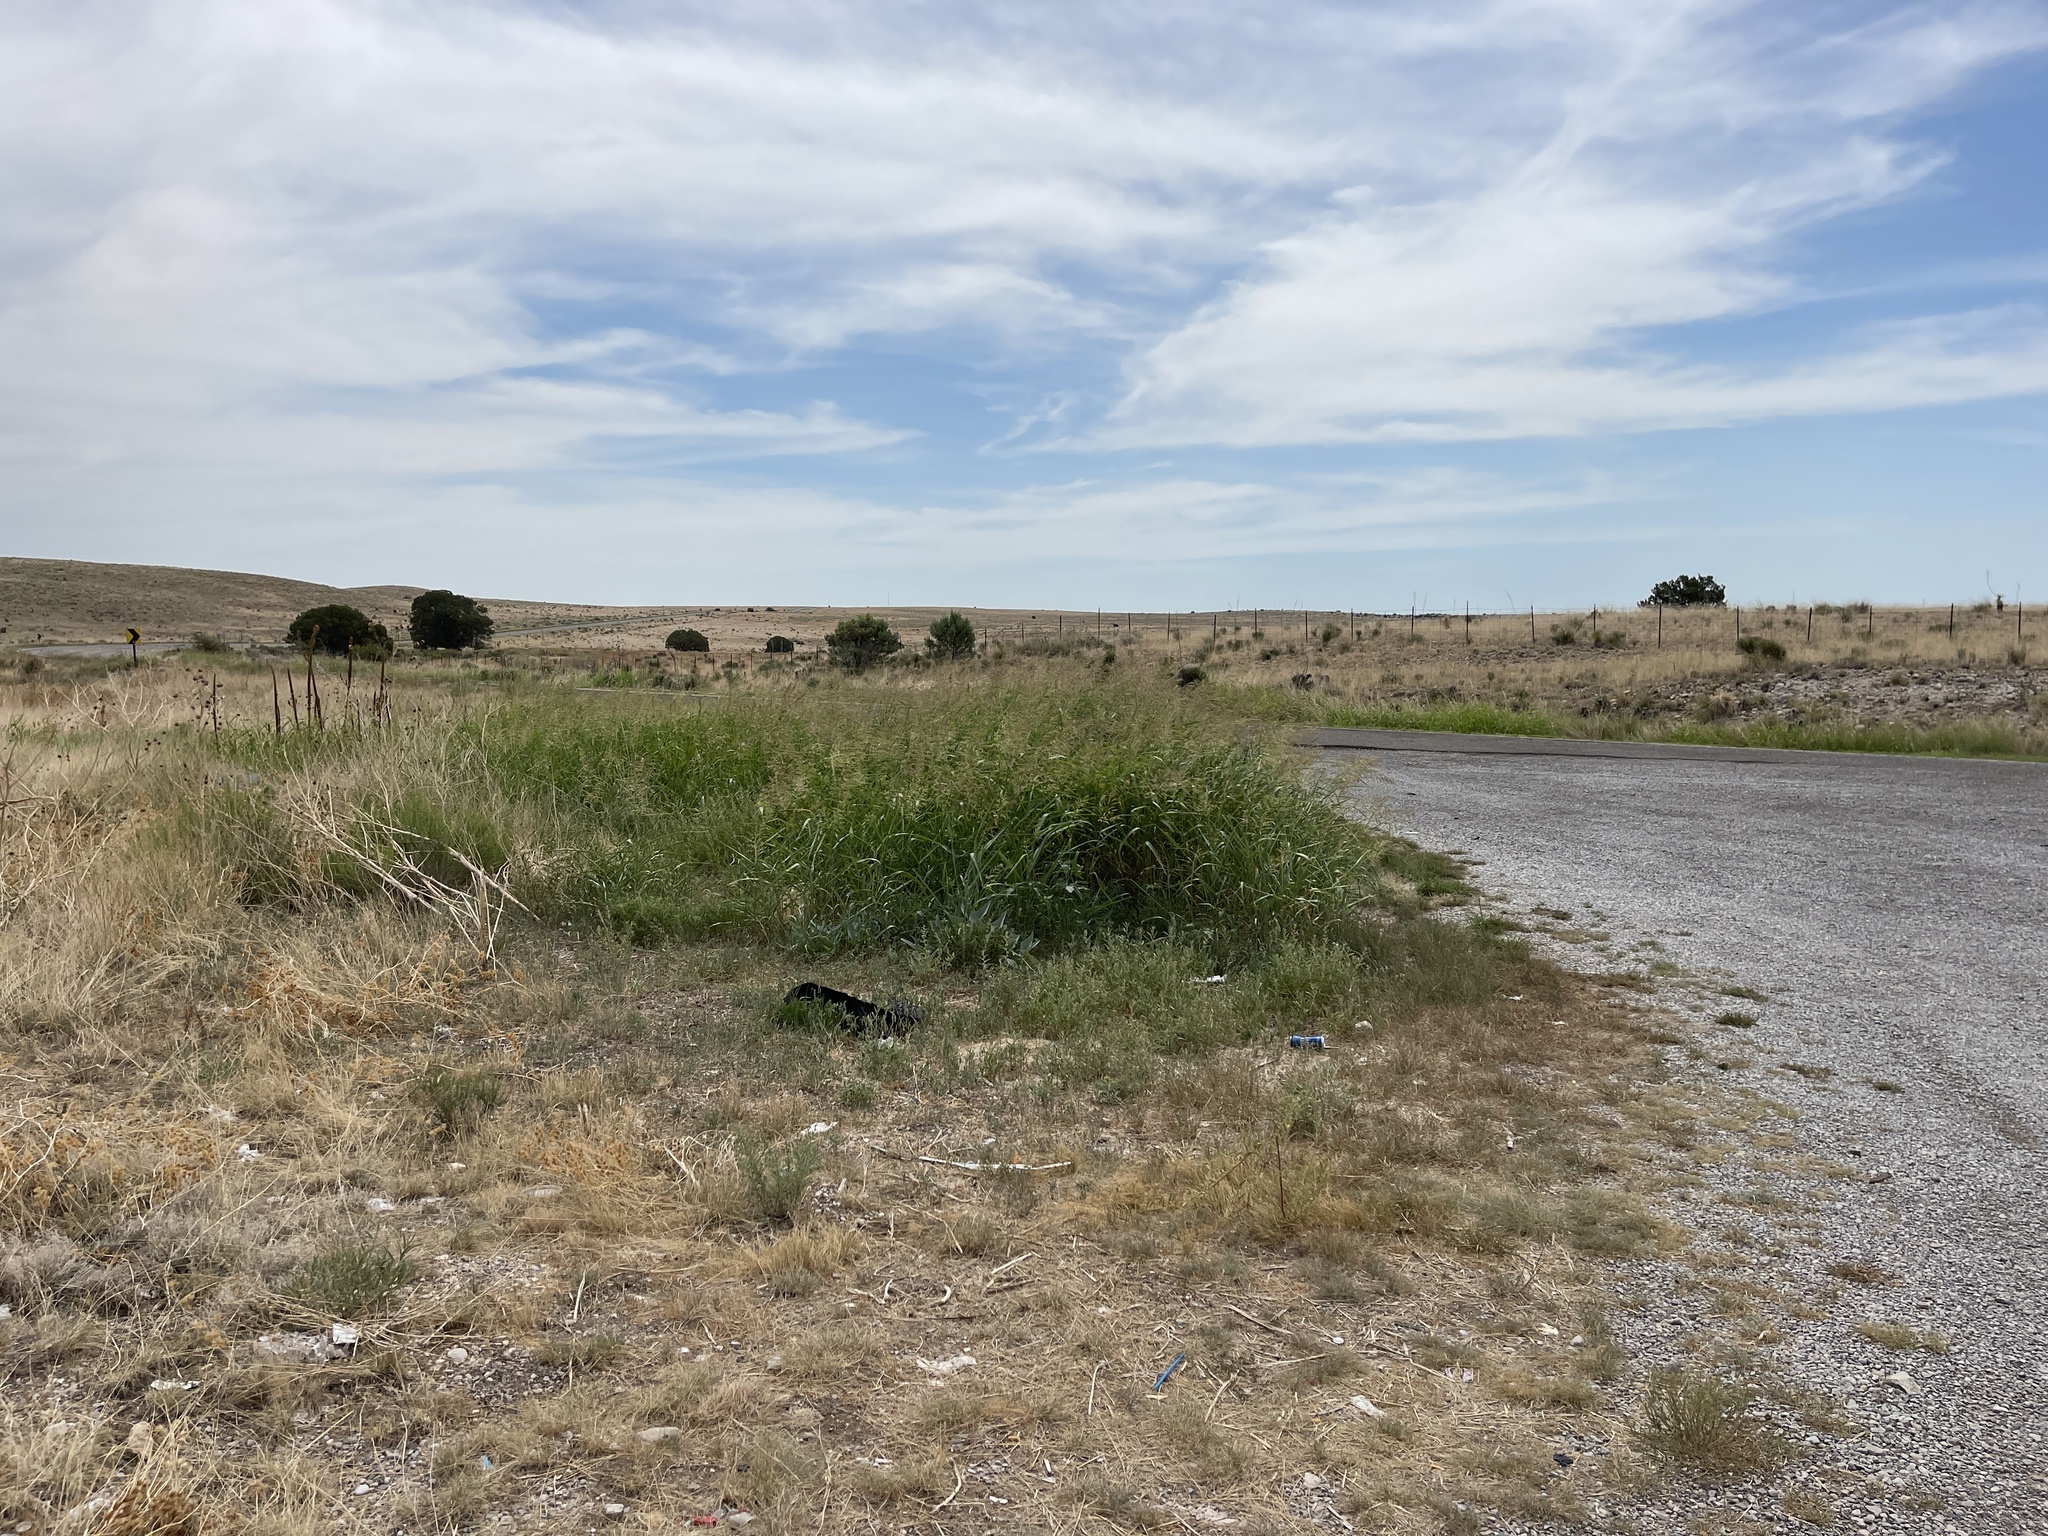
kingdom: Plantae
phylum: Tracheophyta
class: Liliopsida
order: Poales
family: Poaceae
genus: Sorghum
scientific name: Sorghum halepense
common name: Johnson-grass
